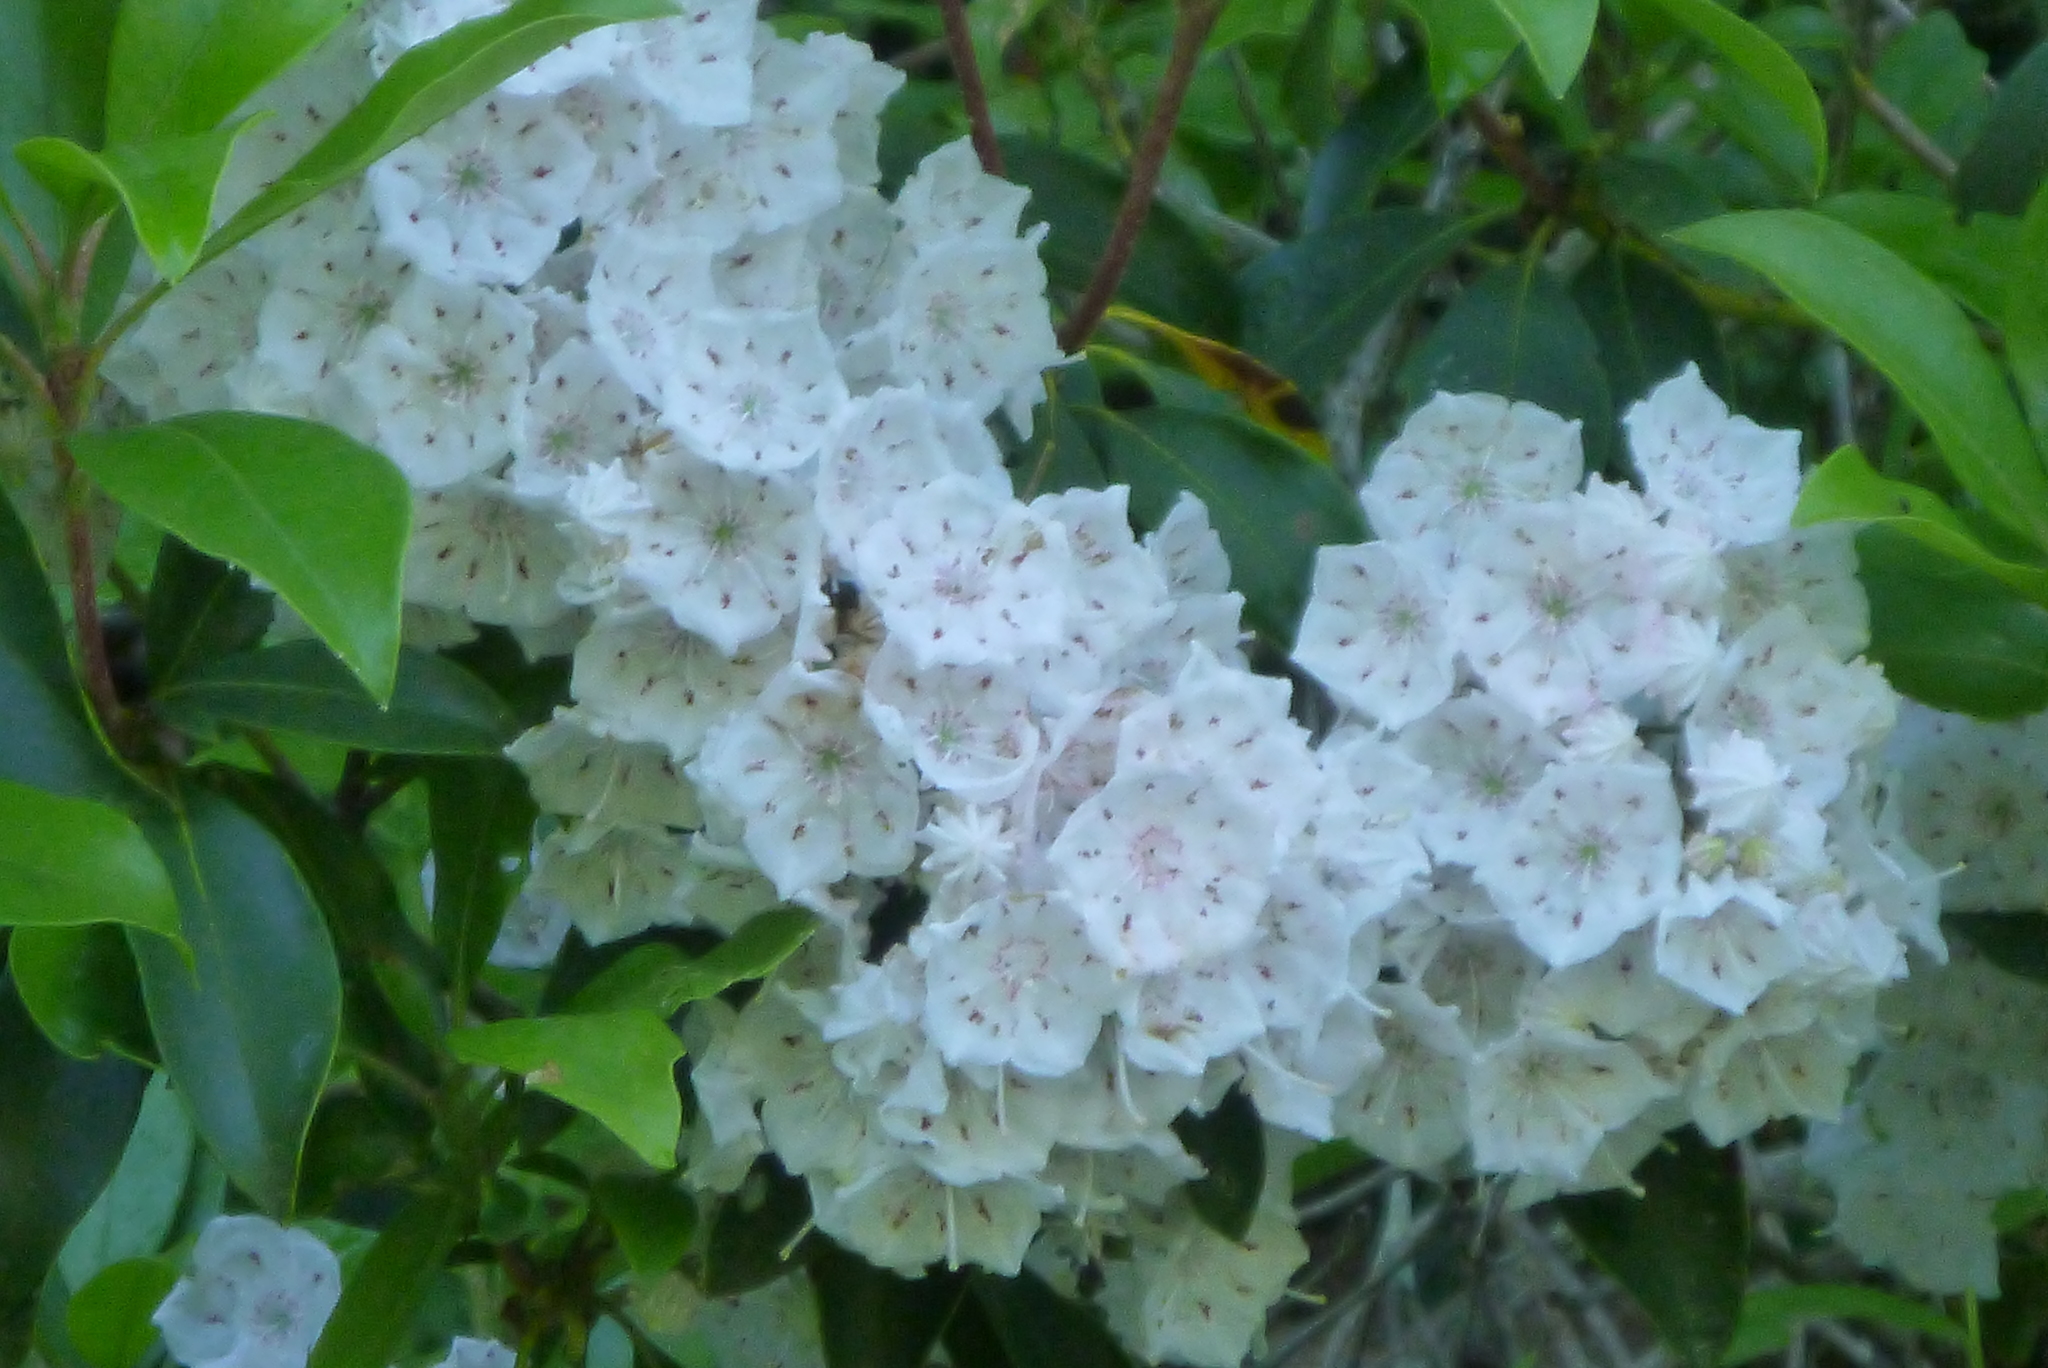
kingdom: Plantae
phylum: Tracheophyta
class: Magnoliopsida
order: Ericales
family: Ericaceae
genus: Kalmia
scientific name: Kalmia latifolia
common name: Mountain-laurel
